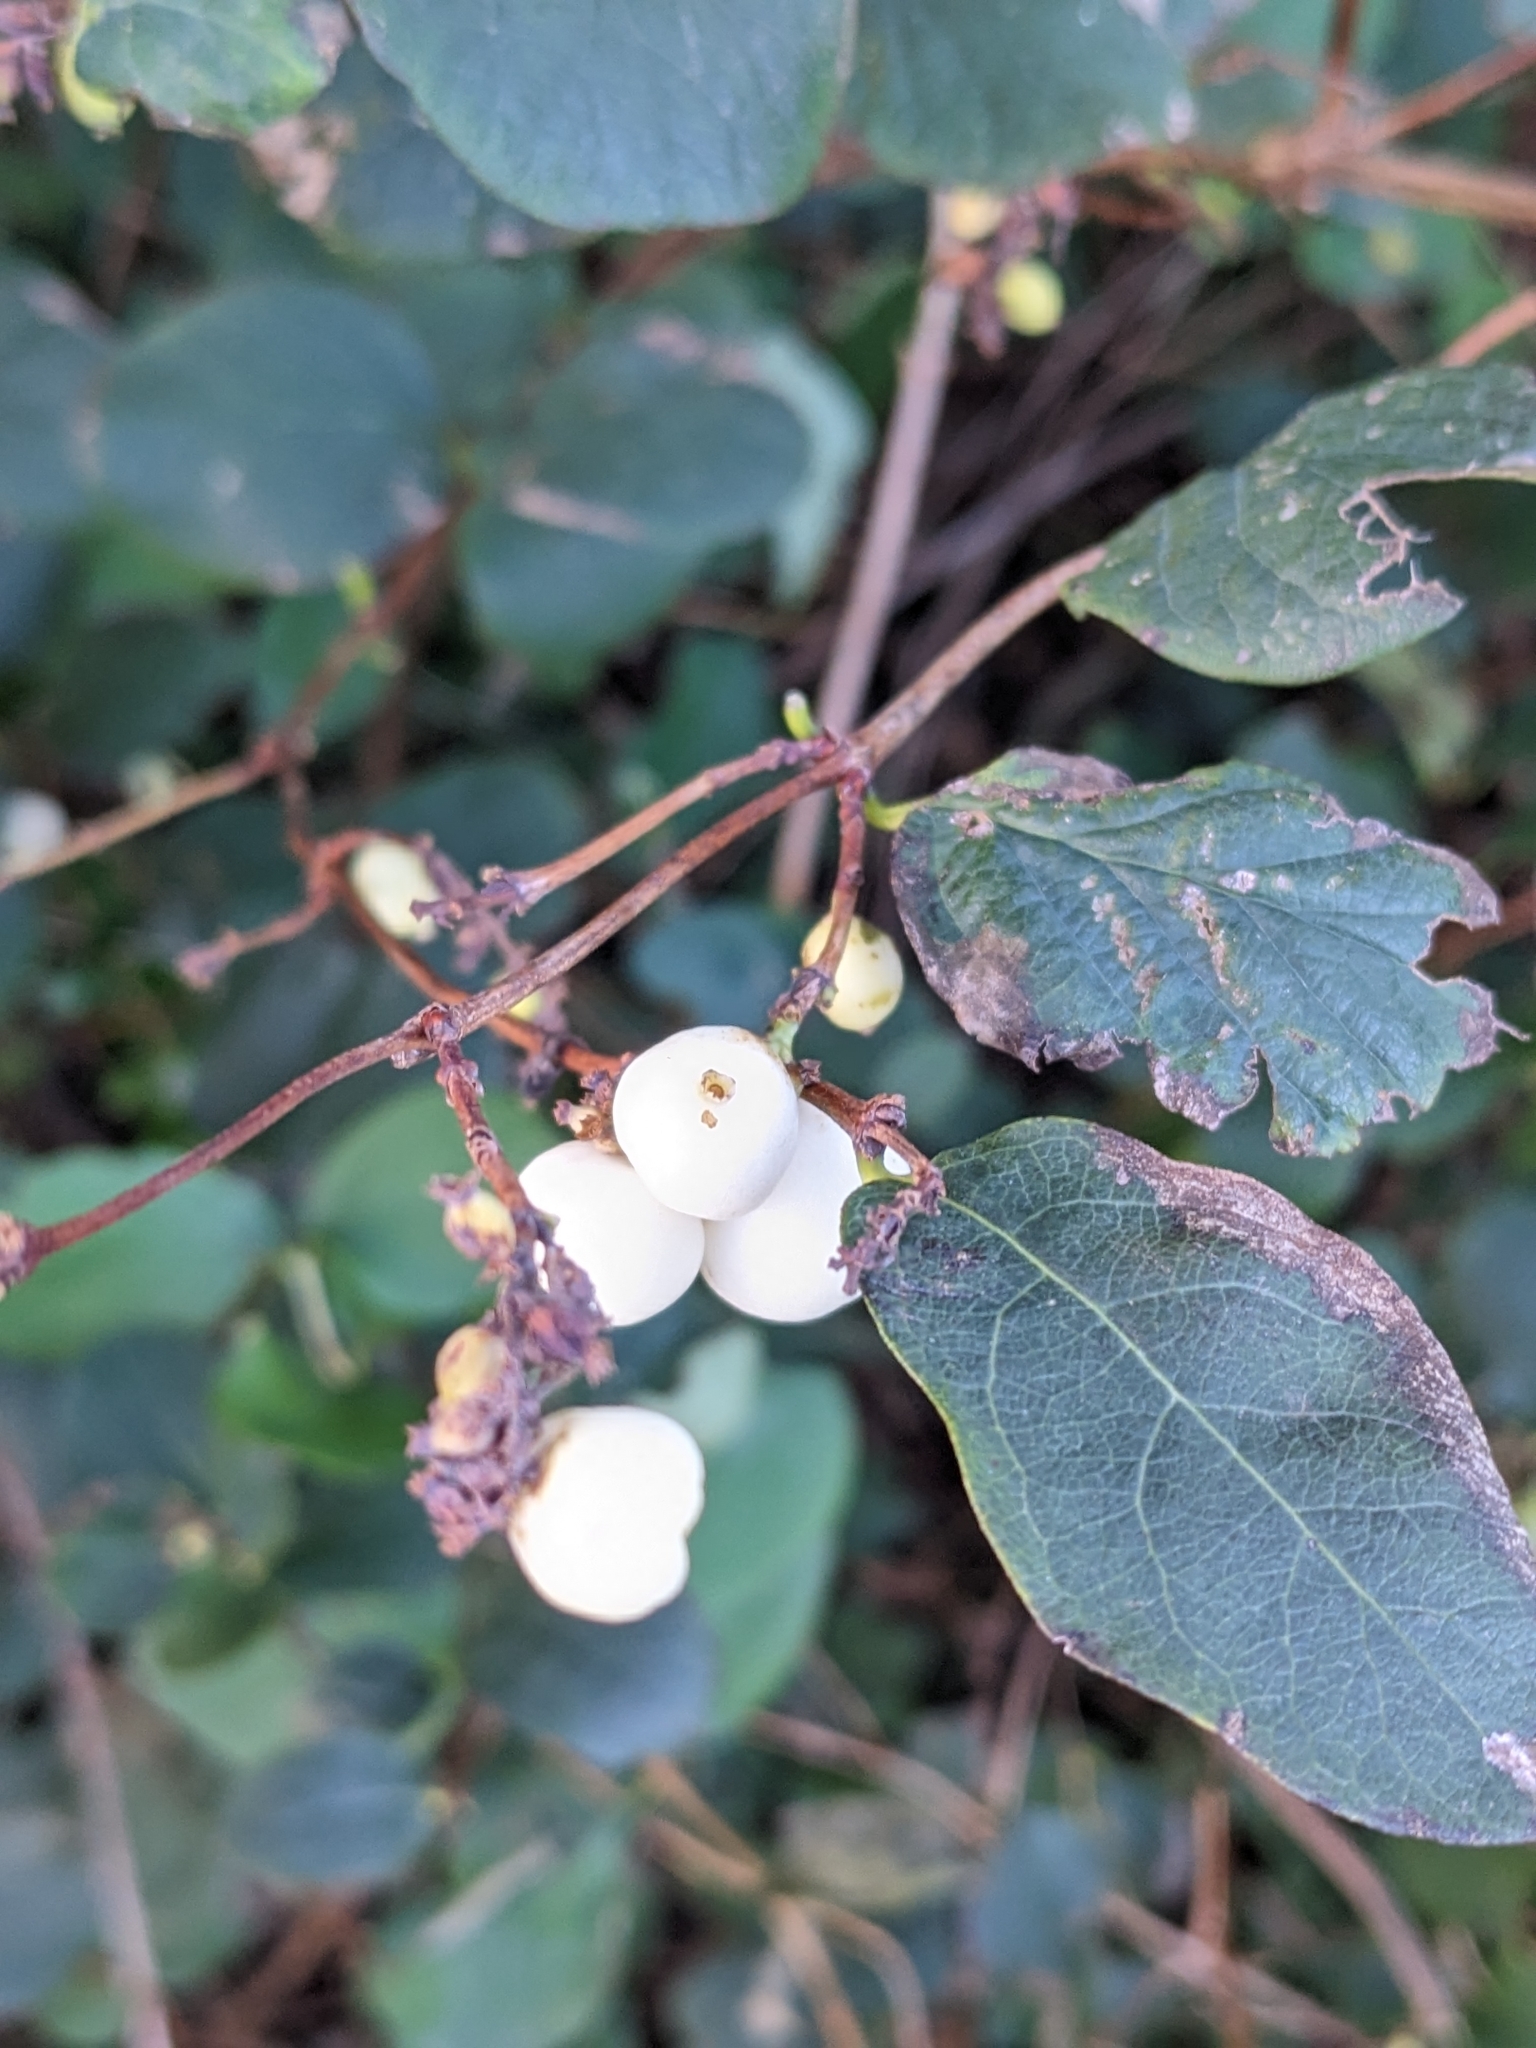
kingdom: Plantae
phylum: Tracheophyta
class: Magnoliopsida
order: Dipsacales
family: Caprifoliaceae
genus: Symphoricarpos
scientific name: Symphoricarpos albus
